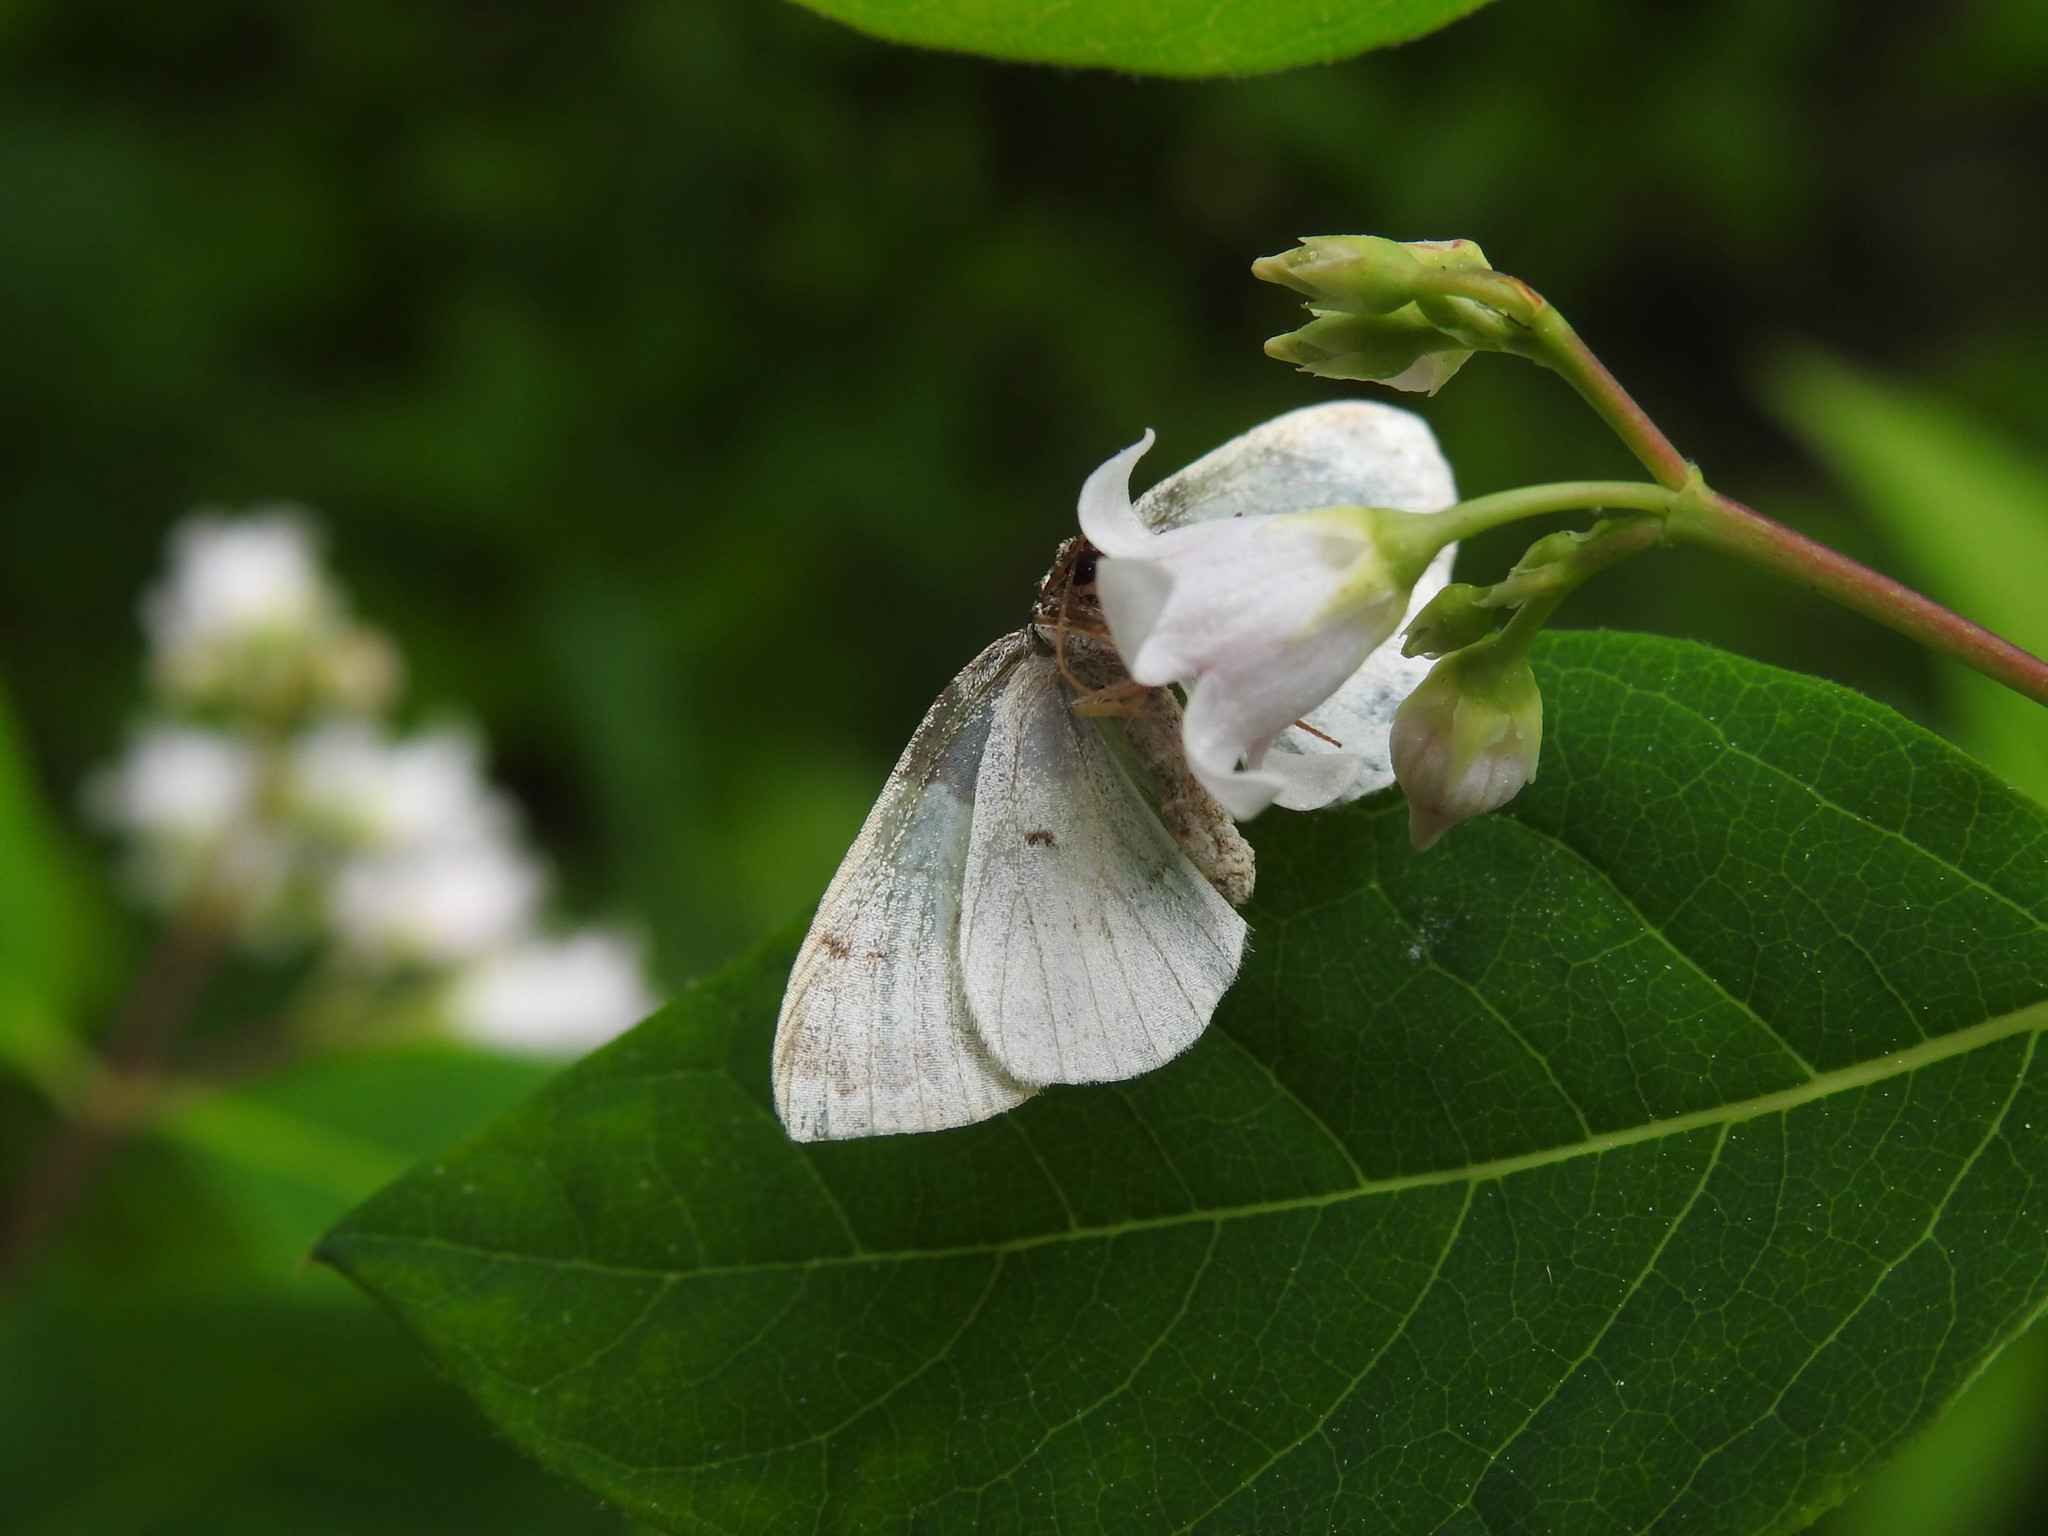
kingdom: Animalia
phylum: Arthropoda
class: Insecta
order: Lepidoptera
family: Geometridae
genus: Mesoleuca
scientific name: Mesoleuca ruficillata
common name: White-ribboned carpet moth
